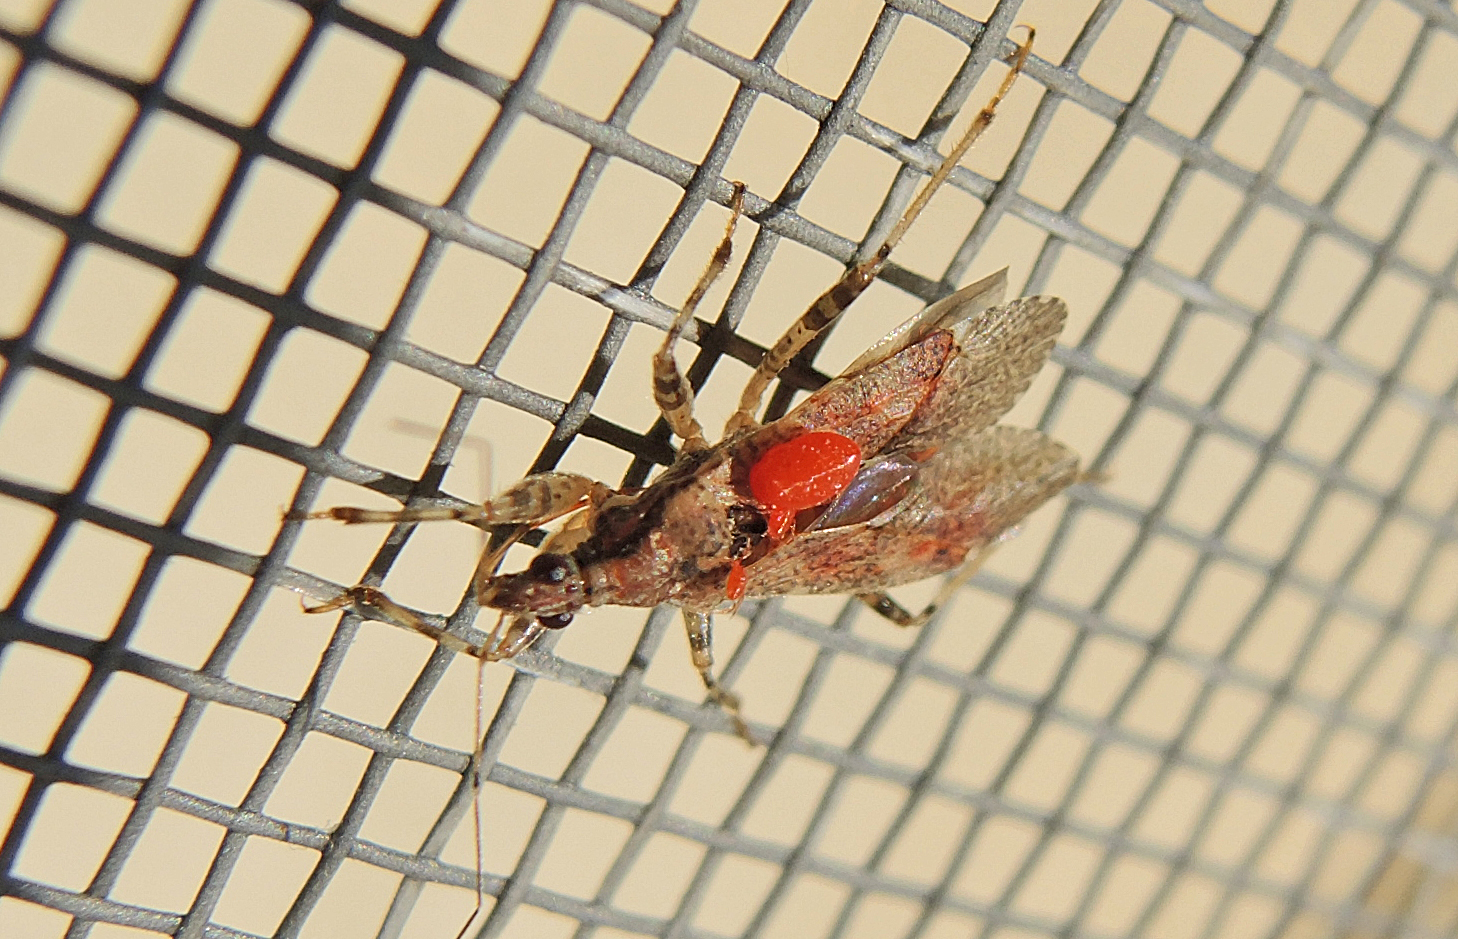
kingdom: Animalia
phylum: Arthropoda
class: Insecta
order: Hemiptera
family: Nabidae
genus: Himacerus
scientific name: Himacerus mirmicoides
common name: Ant damsel bug
